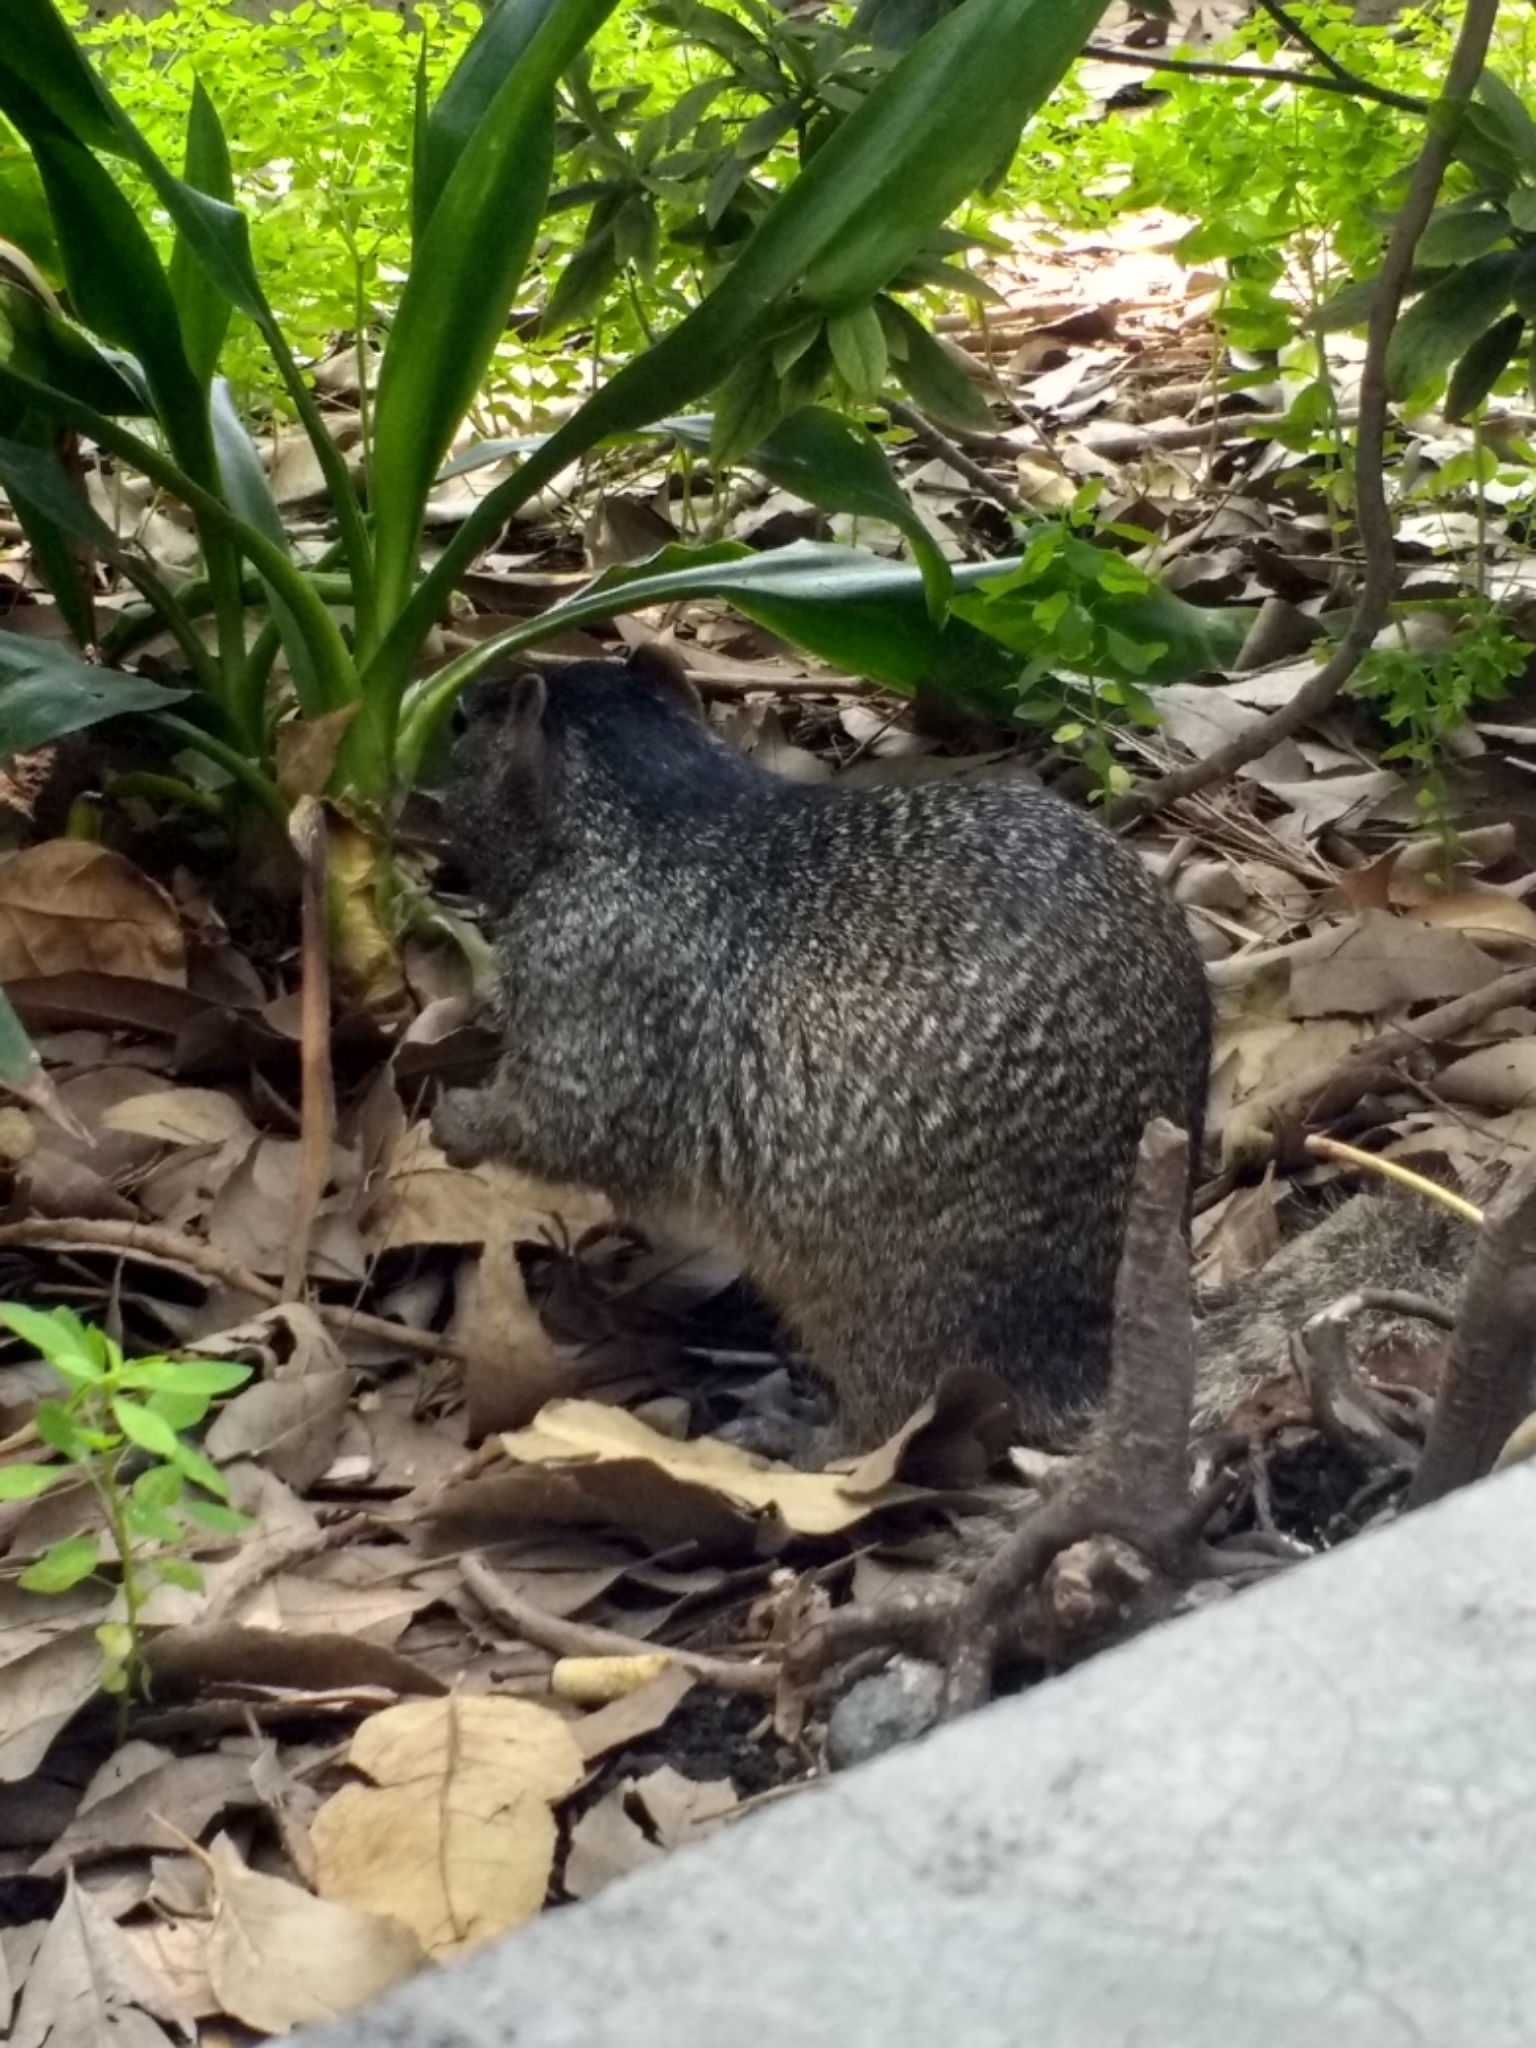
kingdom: Animalia
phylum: Chordata
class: Mammalia
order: Rodentia
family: Sciuridae
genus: Otospermophilus
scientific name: Otospermophilus variegatus
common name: Rock squirrel
